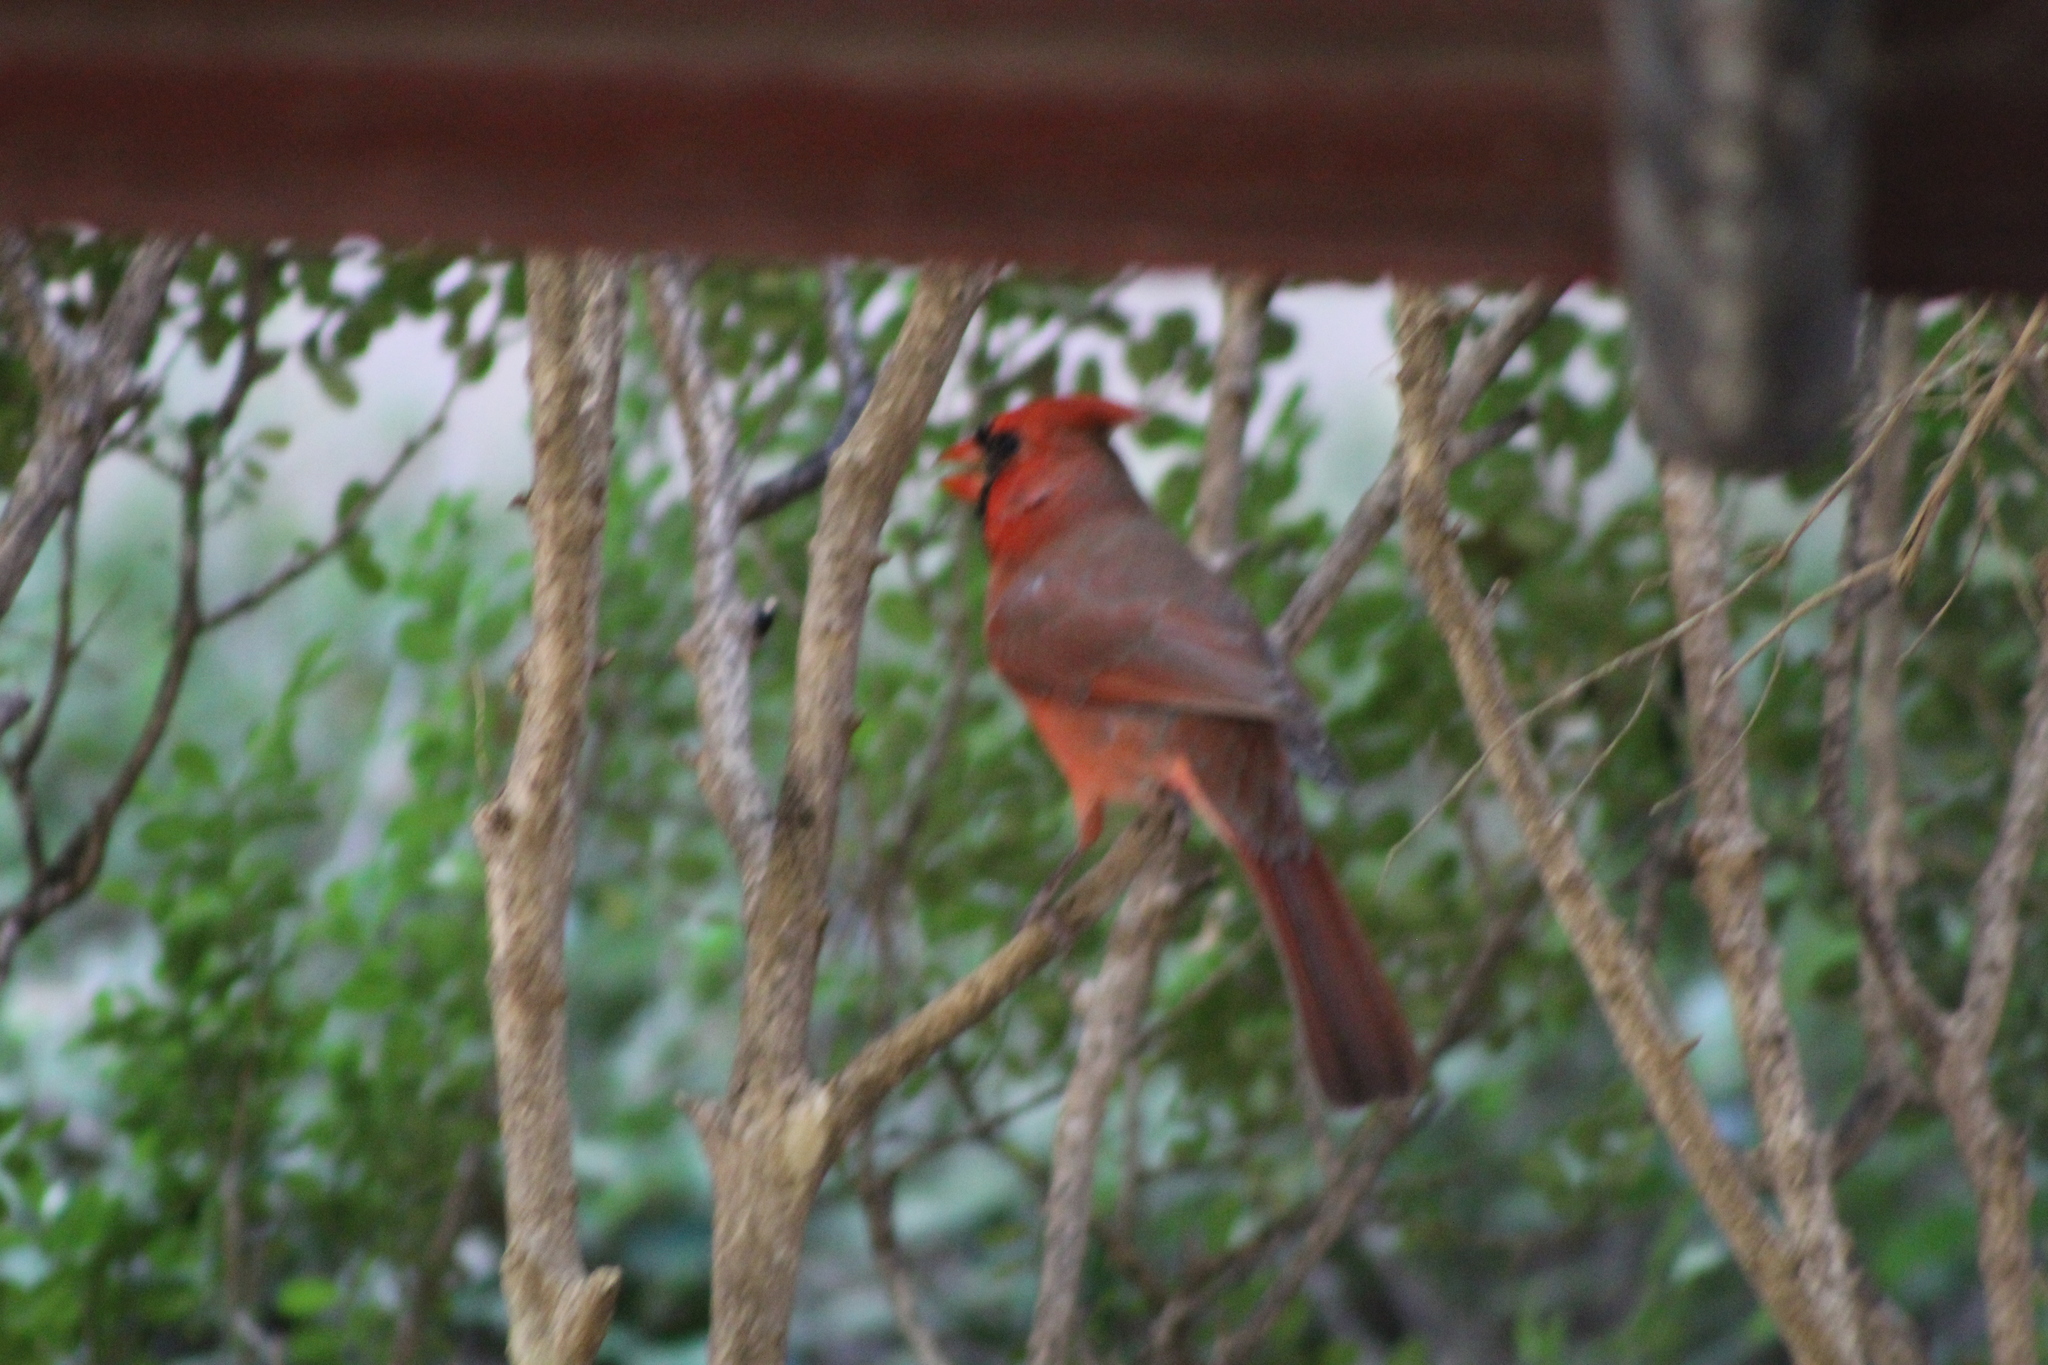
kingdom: Animalia
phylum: Chordata
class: Aves
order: Passeriformes
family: Cardinalidae
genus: Cardinalis
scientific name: Cardinalis cardinalis
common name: Northern cardinal
